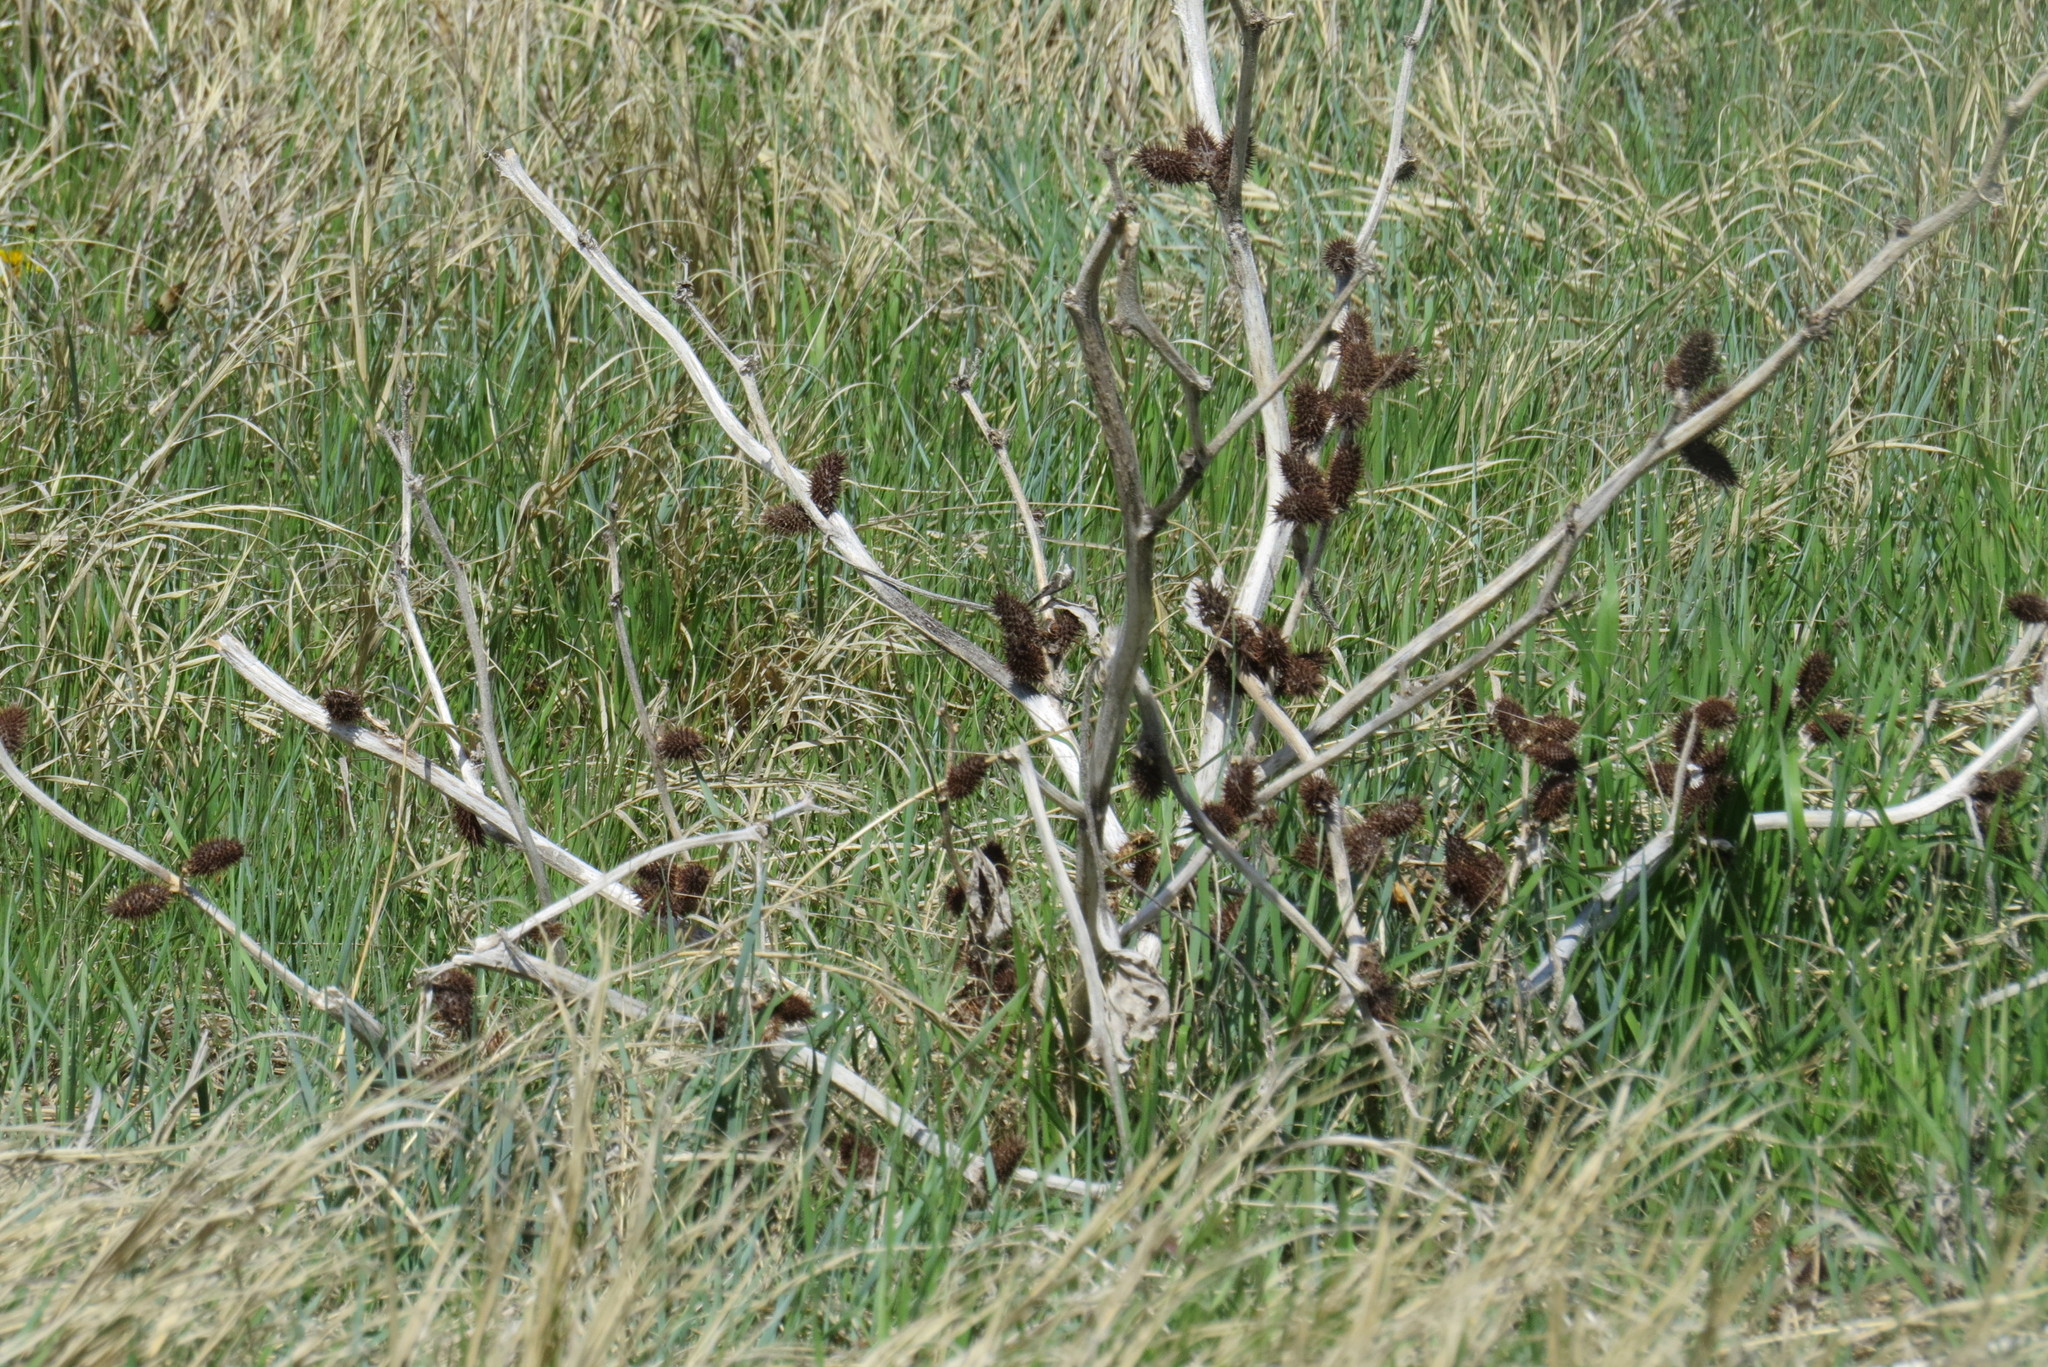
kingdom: Plantae
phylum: Tracheophyta
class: Magnoliopsida
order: Asterales
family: Asteraceae
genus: Xanthium
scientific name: Xanthium strumarium
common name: Rough cocklebur
